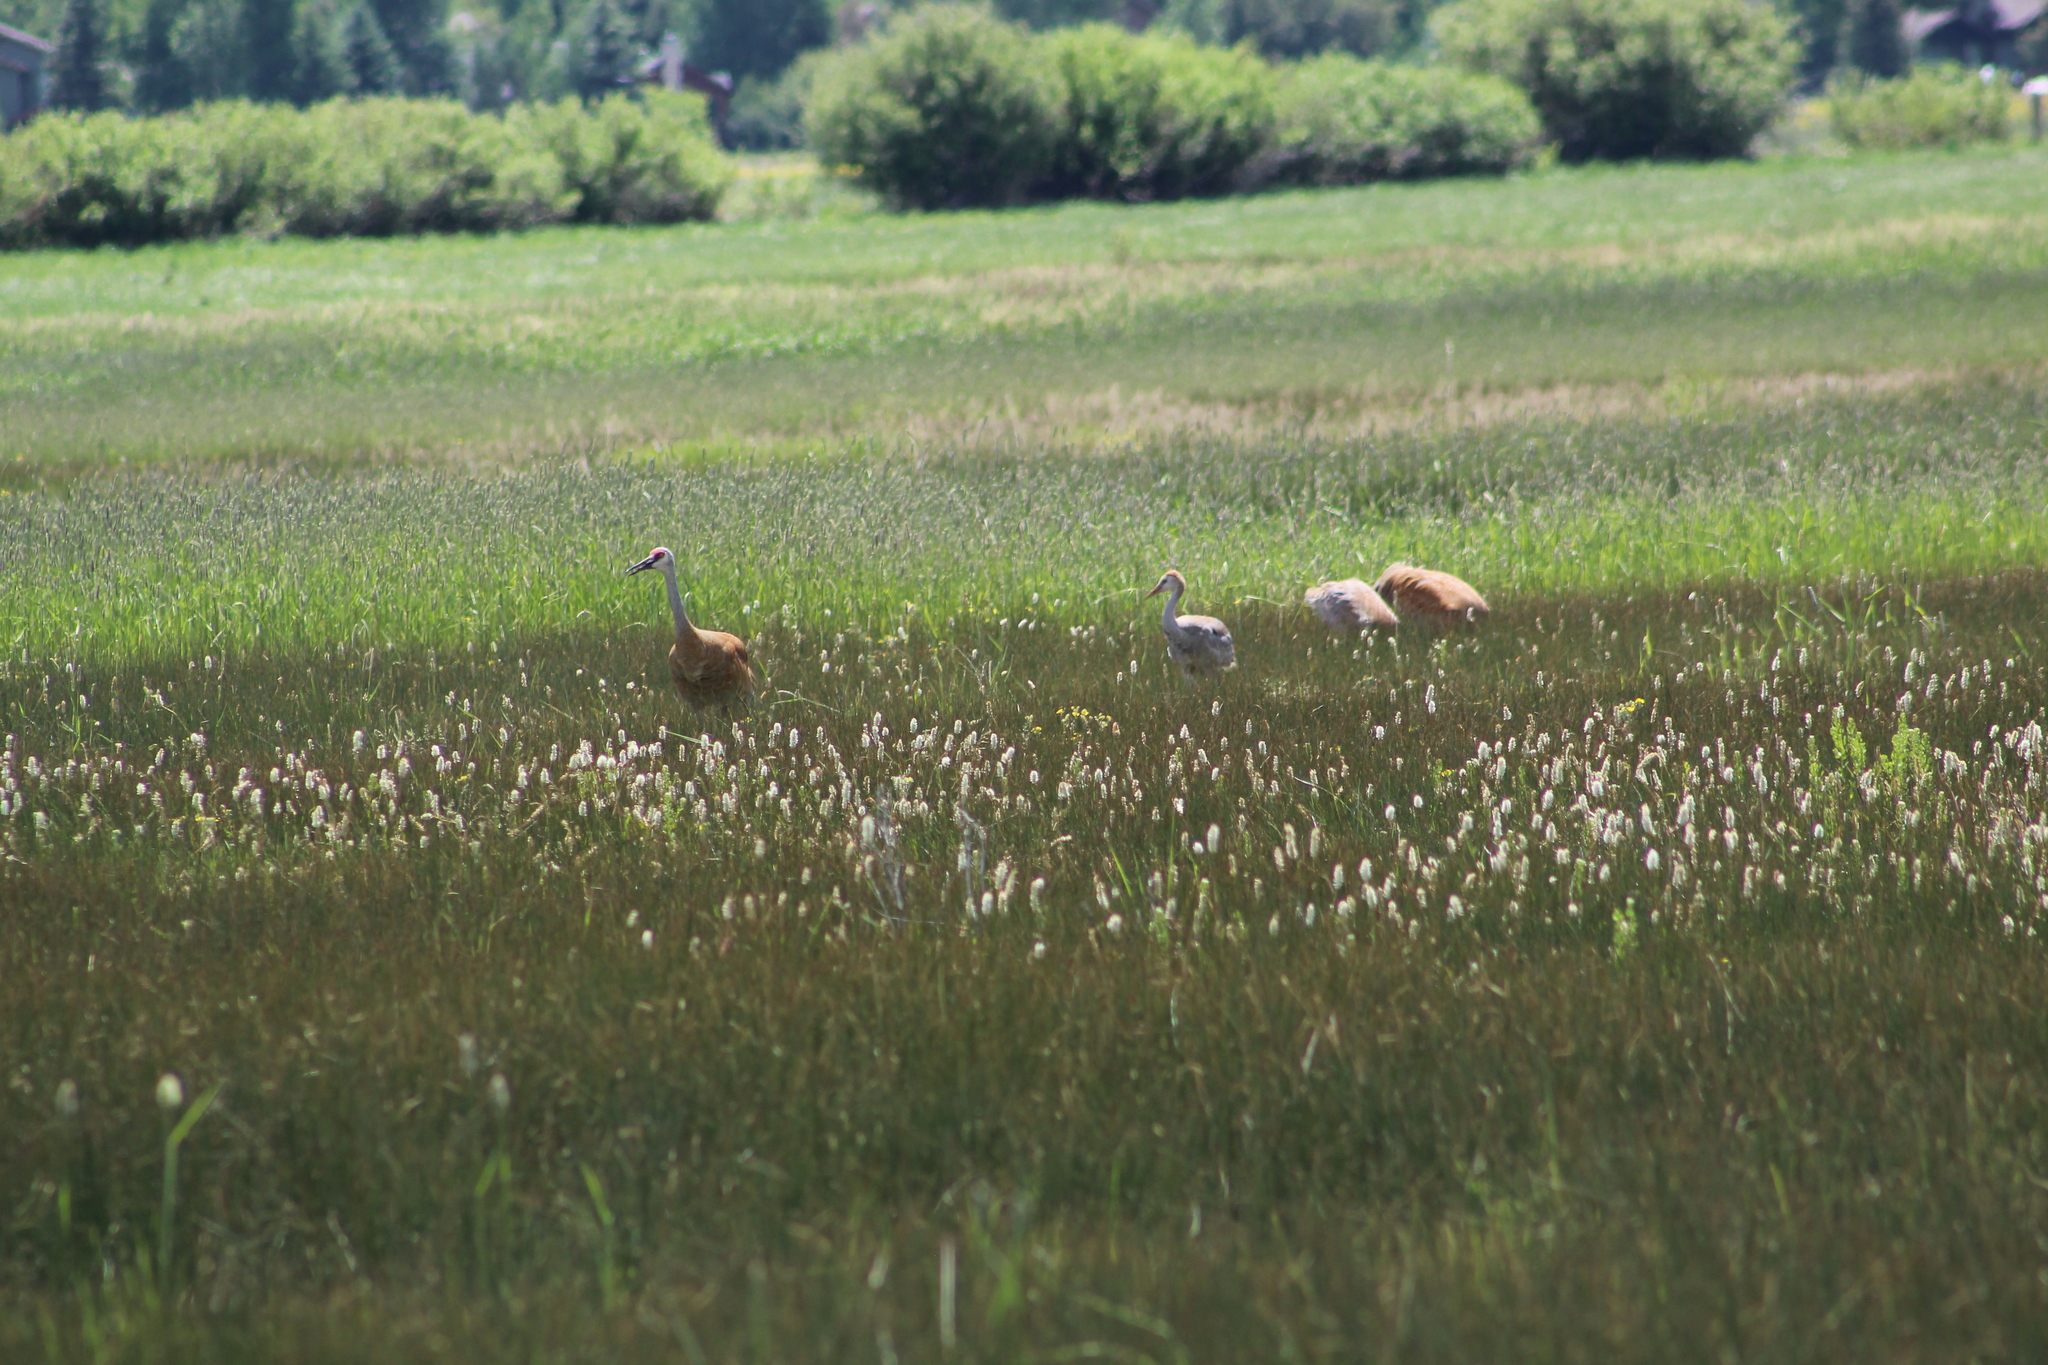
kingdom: Animalia
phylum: Chordata
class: Aves
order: Gruiformes
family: Gruidae
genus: Grus
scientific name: Grus canadensis
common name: Sandhill crane
